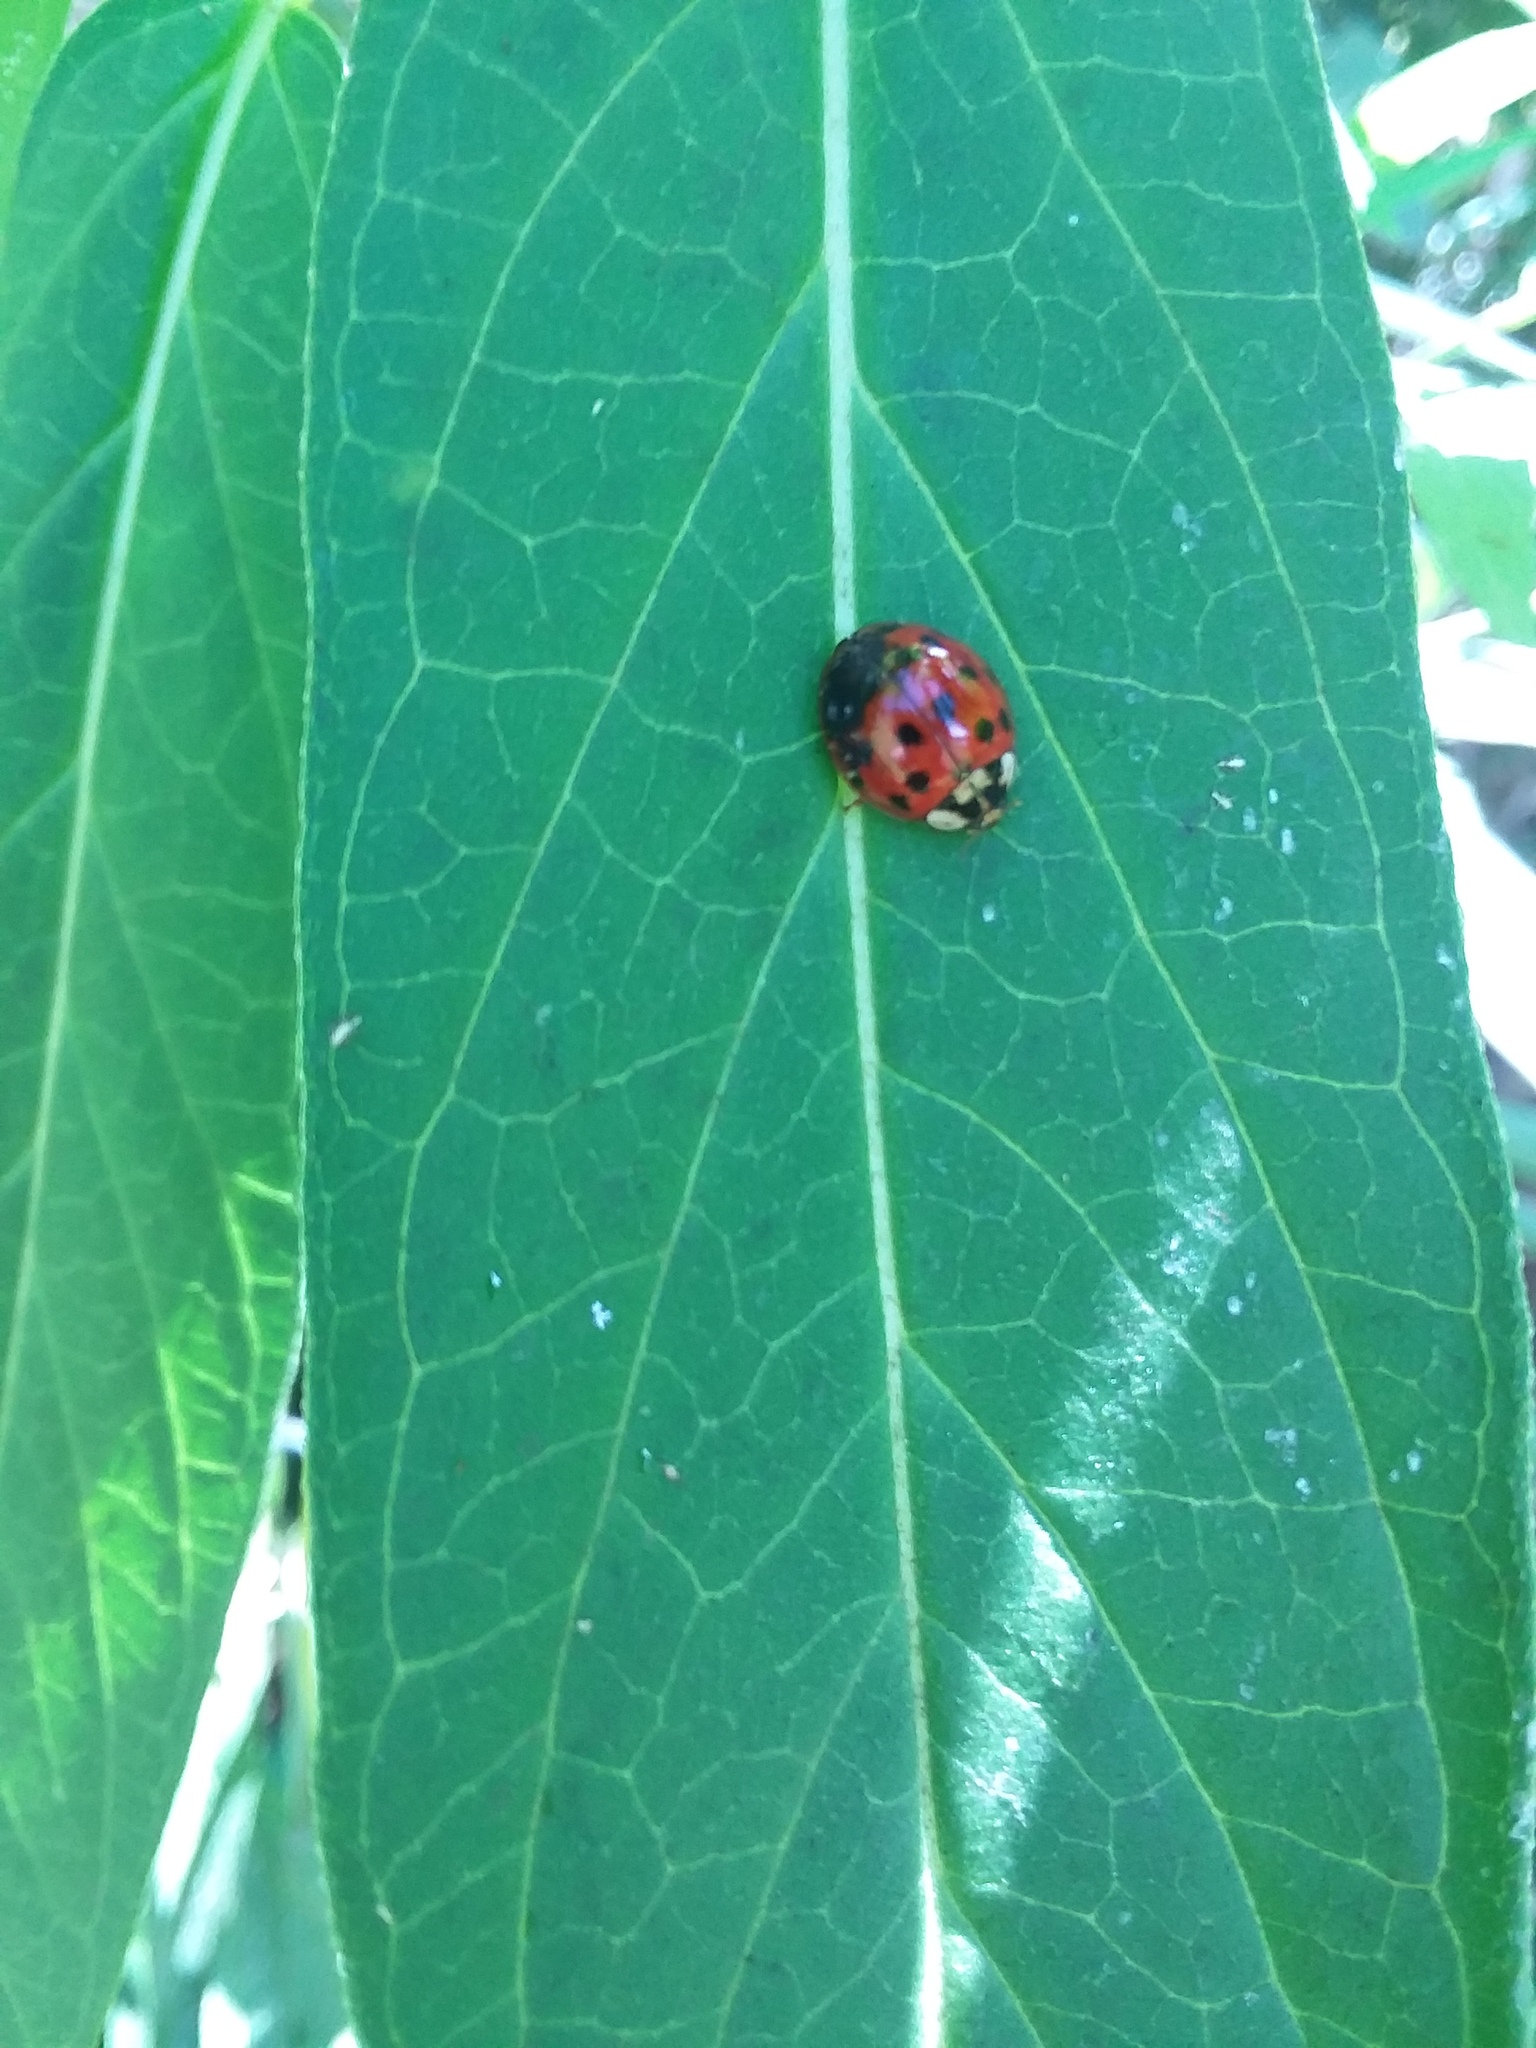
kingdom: Fungi
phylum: Ascomycota
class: Laboulbeniomycetes
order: Laboulbeniales
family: Laboulbeniaceae
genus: Hesperomyces
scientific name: Hesperomyces harmoniae
